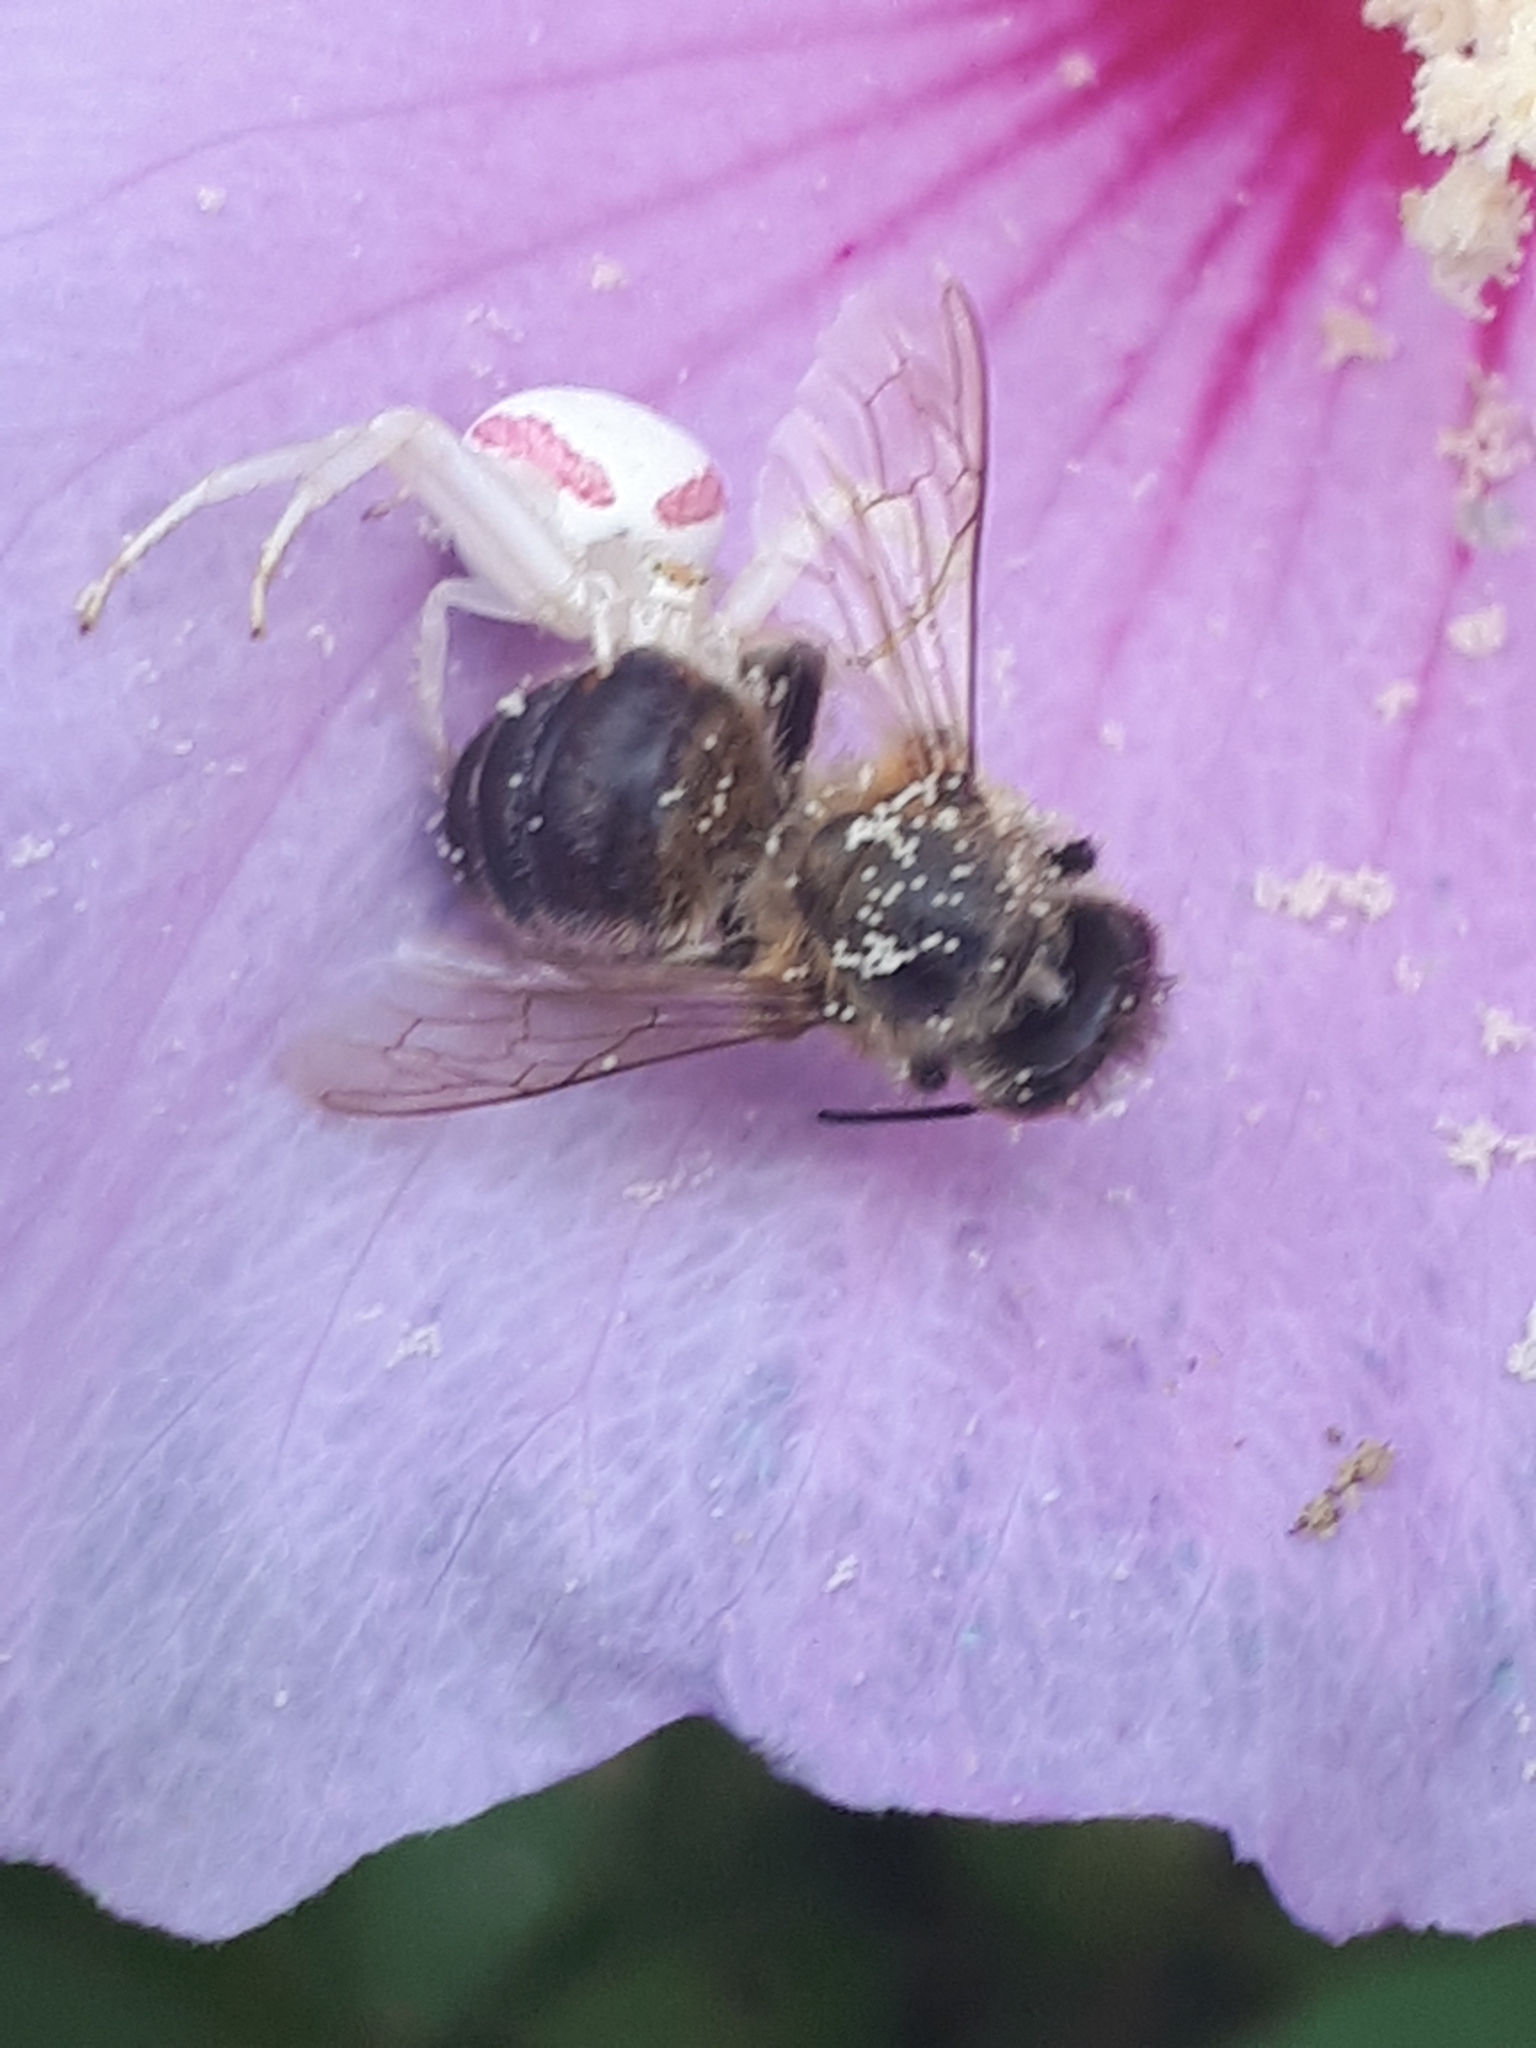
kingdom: Animalia
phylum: Arthropoda
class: Arachnida
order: Araneae
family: Thomisidae
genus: Misumena
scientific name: Misumena vatia
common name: Goldenrod crab spider
